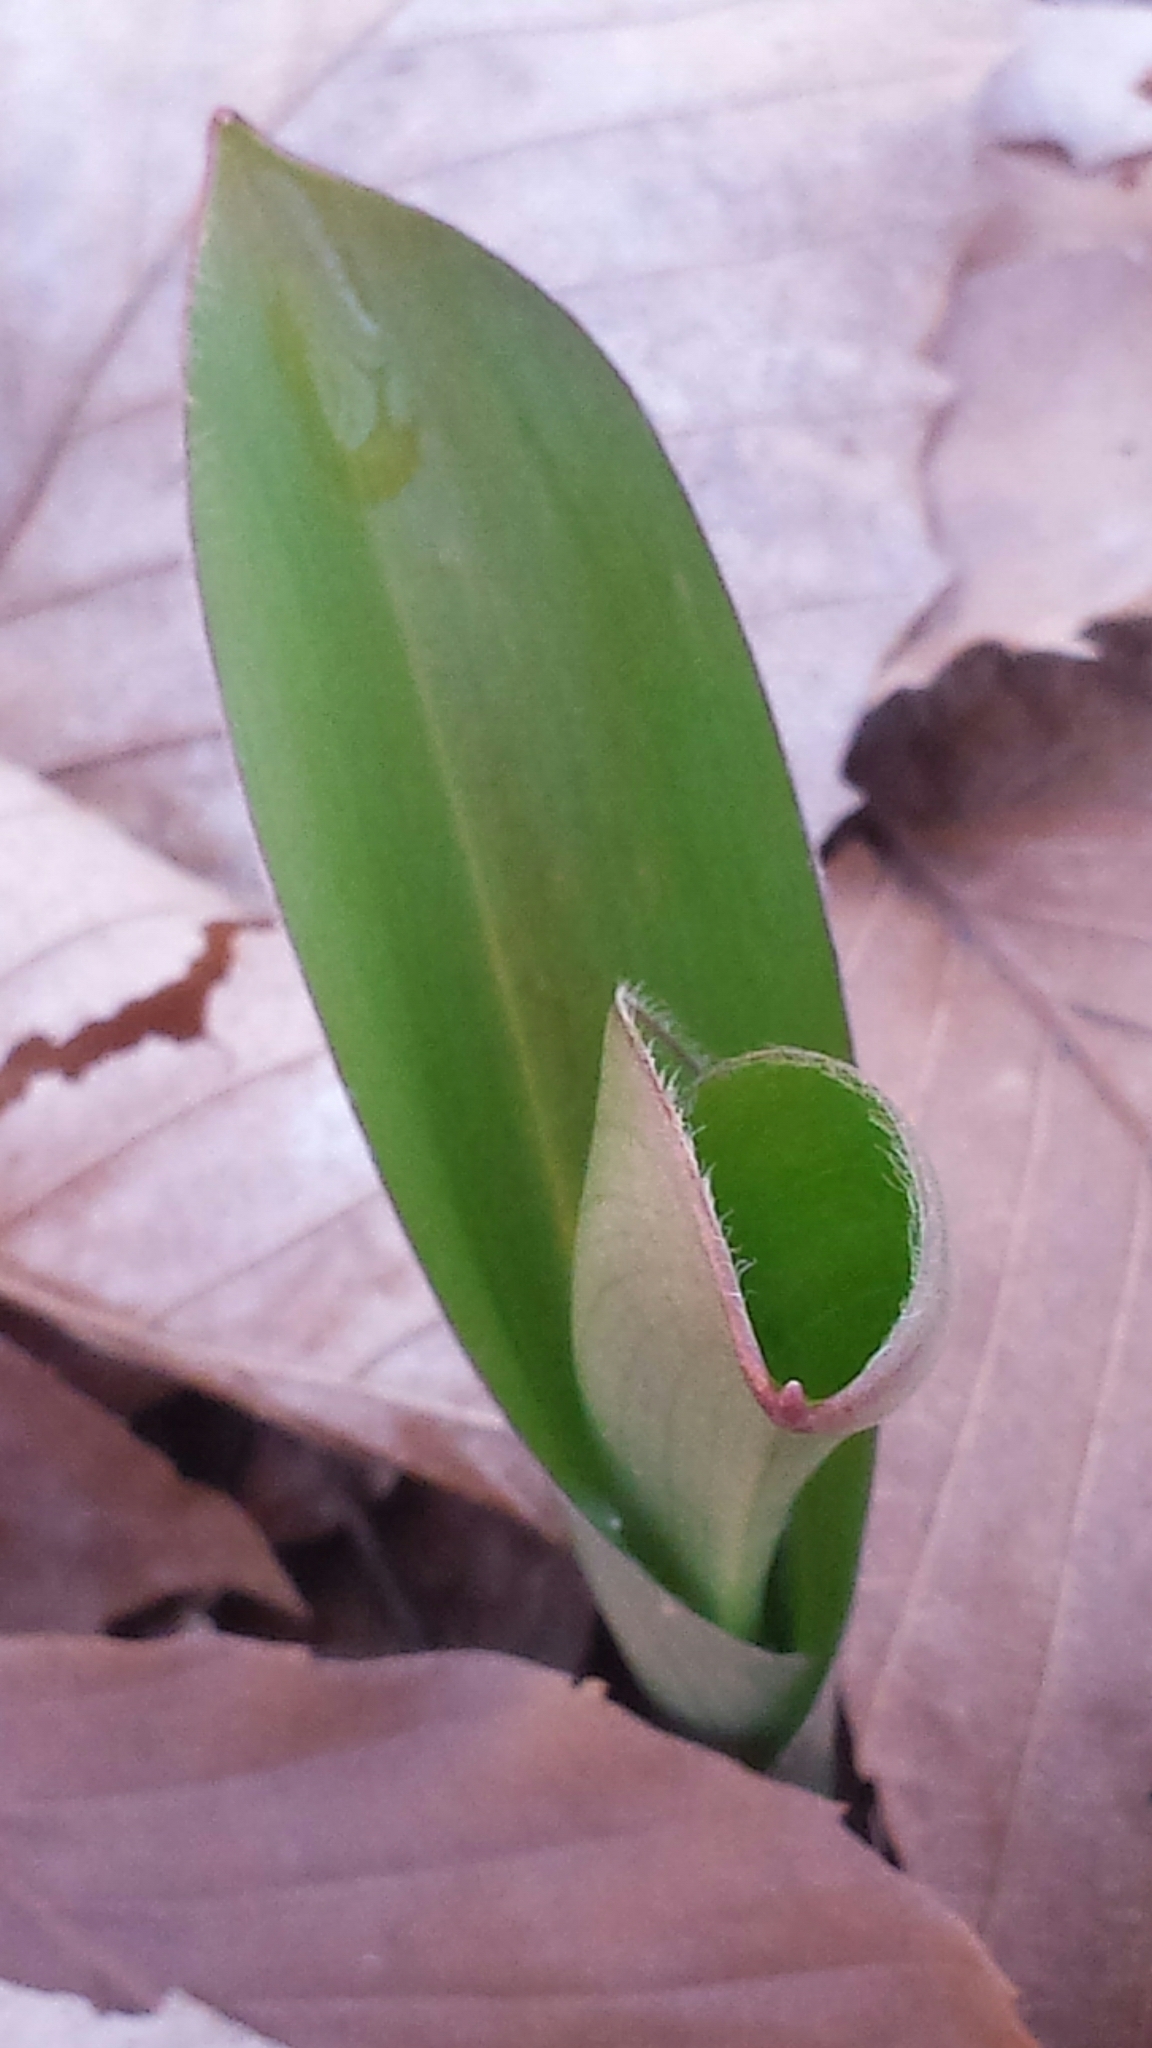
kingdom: Plantae
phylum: Tracheophyta
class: Liliopsida
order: Liliales
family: Liliaceae
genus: Clintonia
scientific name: Clintonia borealis
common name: Yellow clintonia
